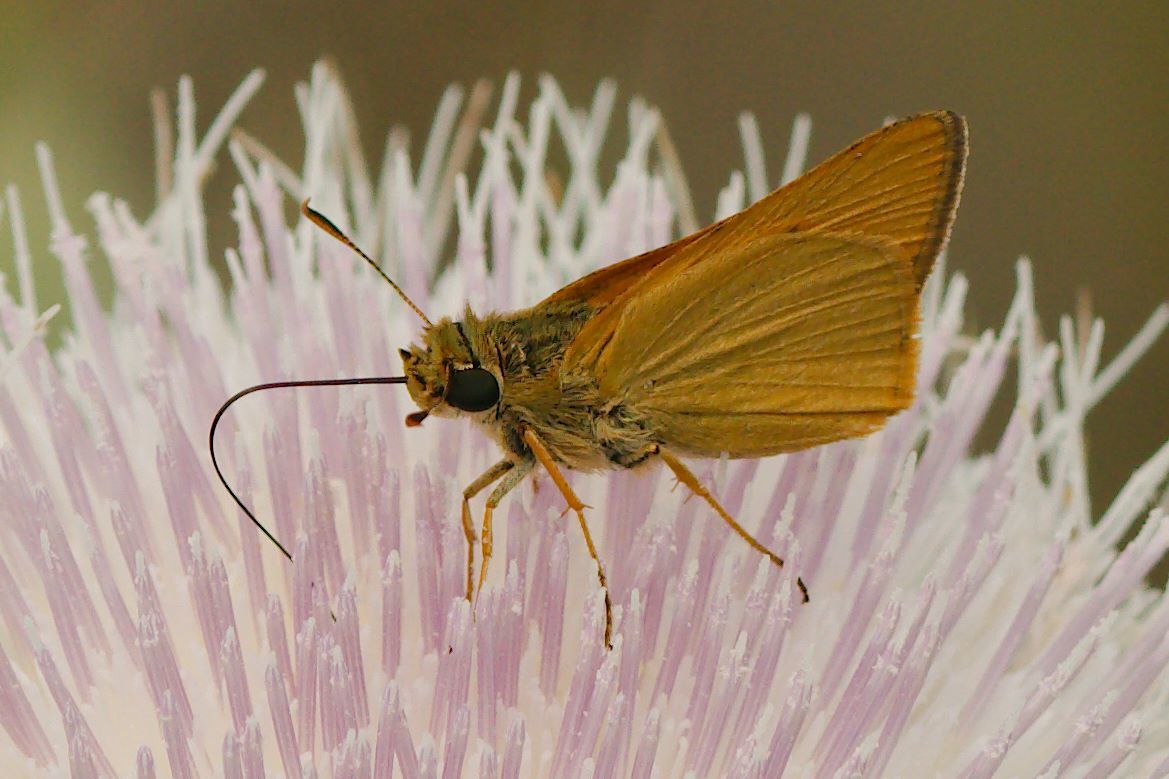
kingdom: Animalia
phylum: Arthropoda
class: Insecta
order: Lepidoptera
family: Hesperiidae
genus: Atrytone
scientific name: Atrytone delaware
